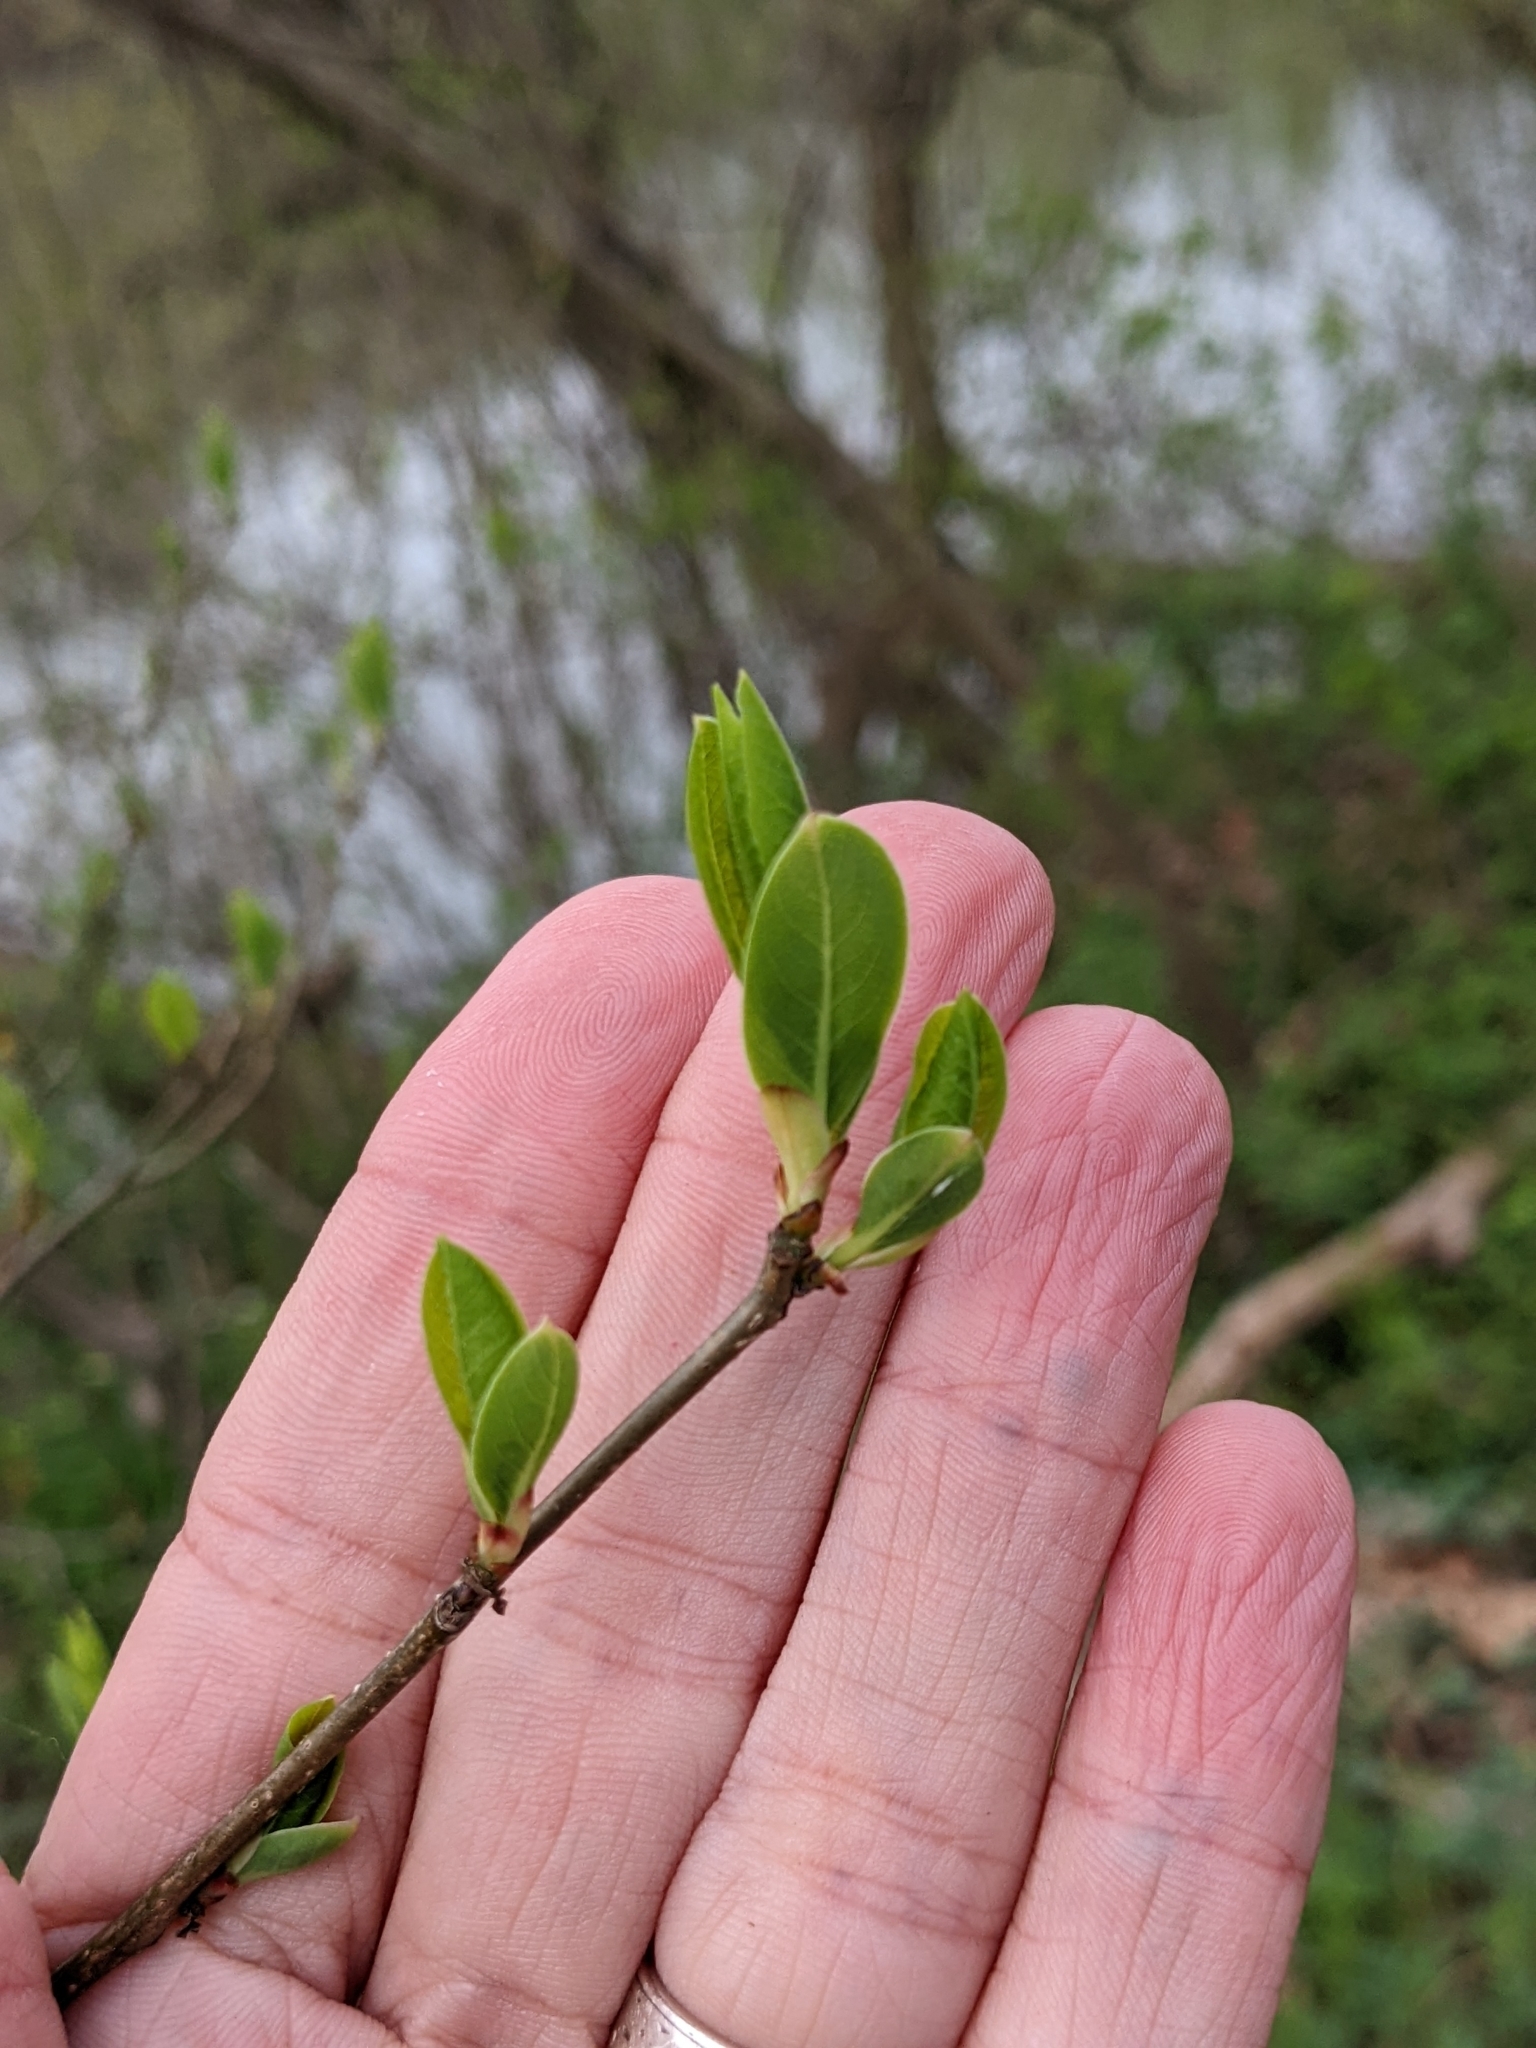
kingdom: Plantae
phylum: Tracheophyta
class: Magnoliopsida
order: Laurales
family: Lauraceae
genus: Lindera
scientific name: Lindera benzoin
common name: Spicebush
